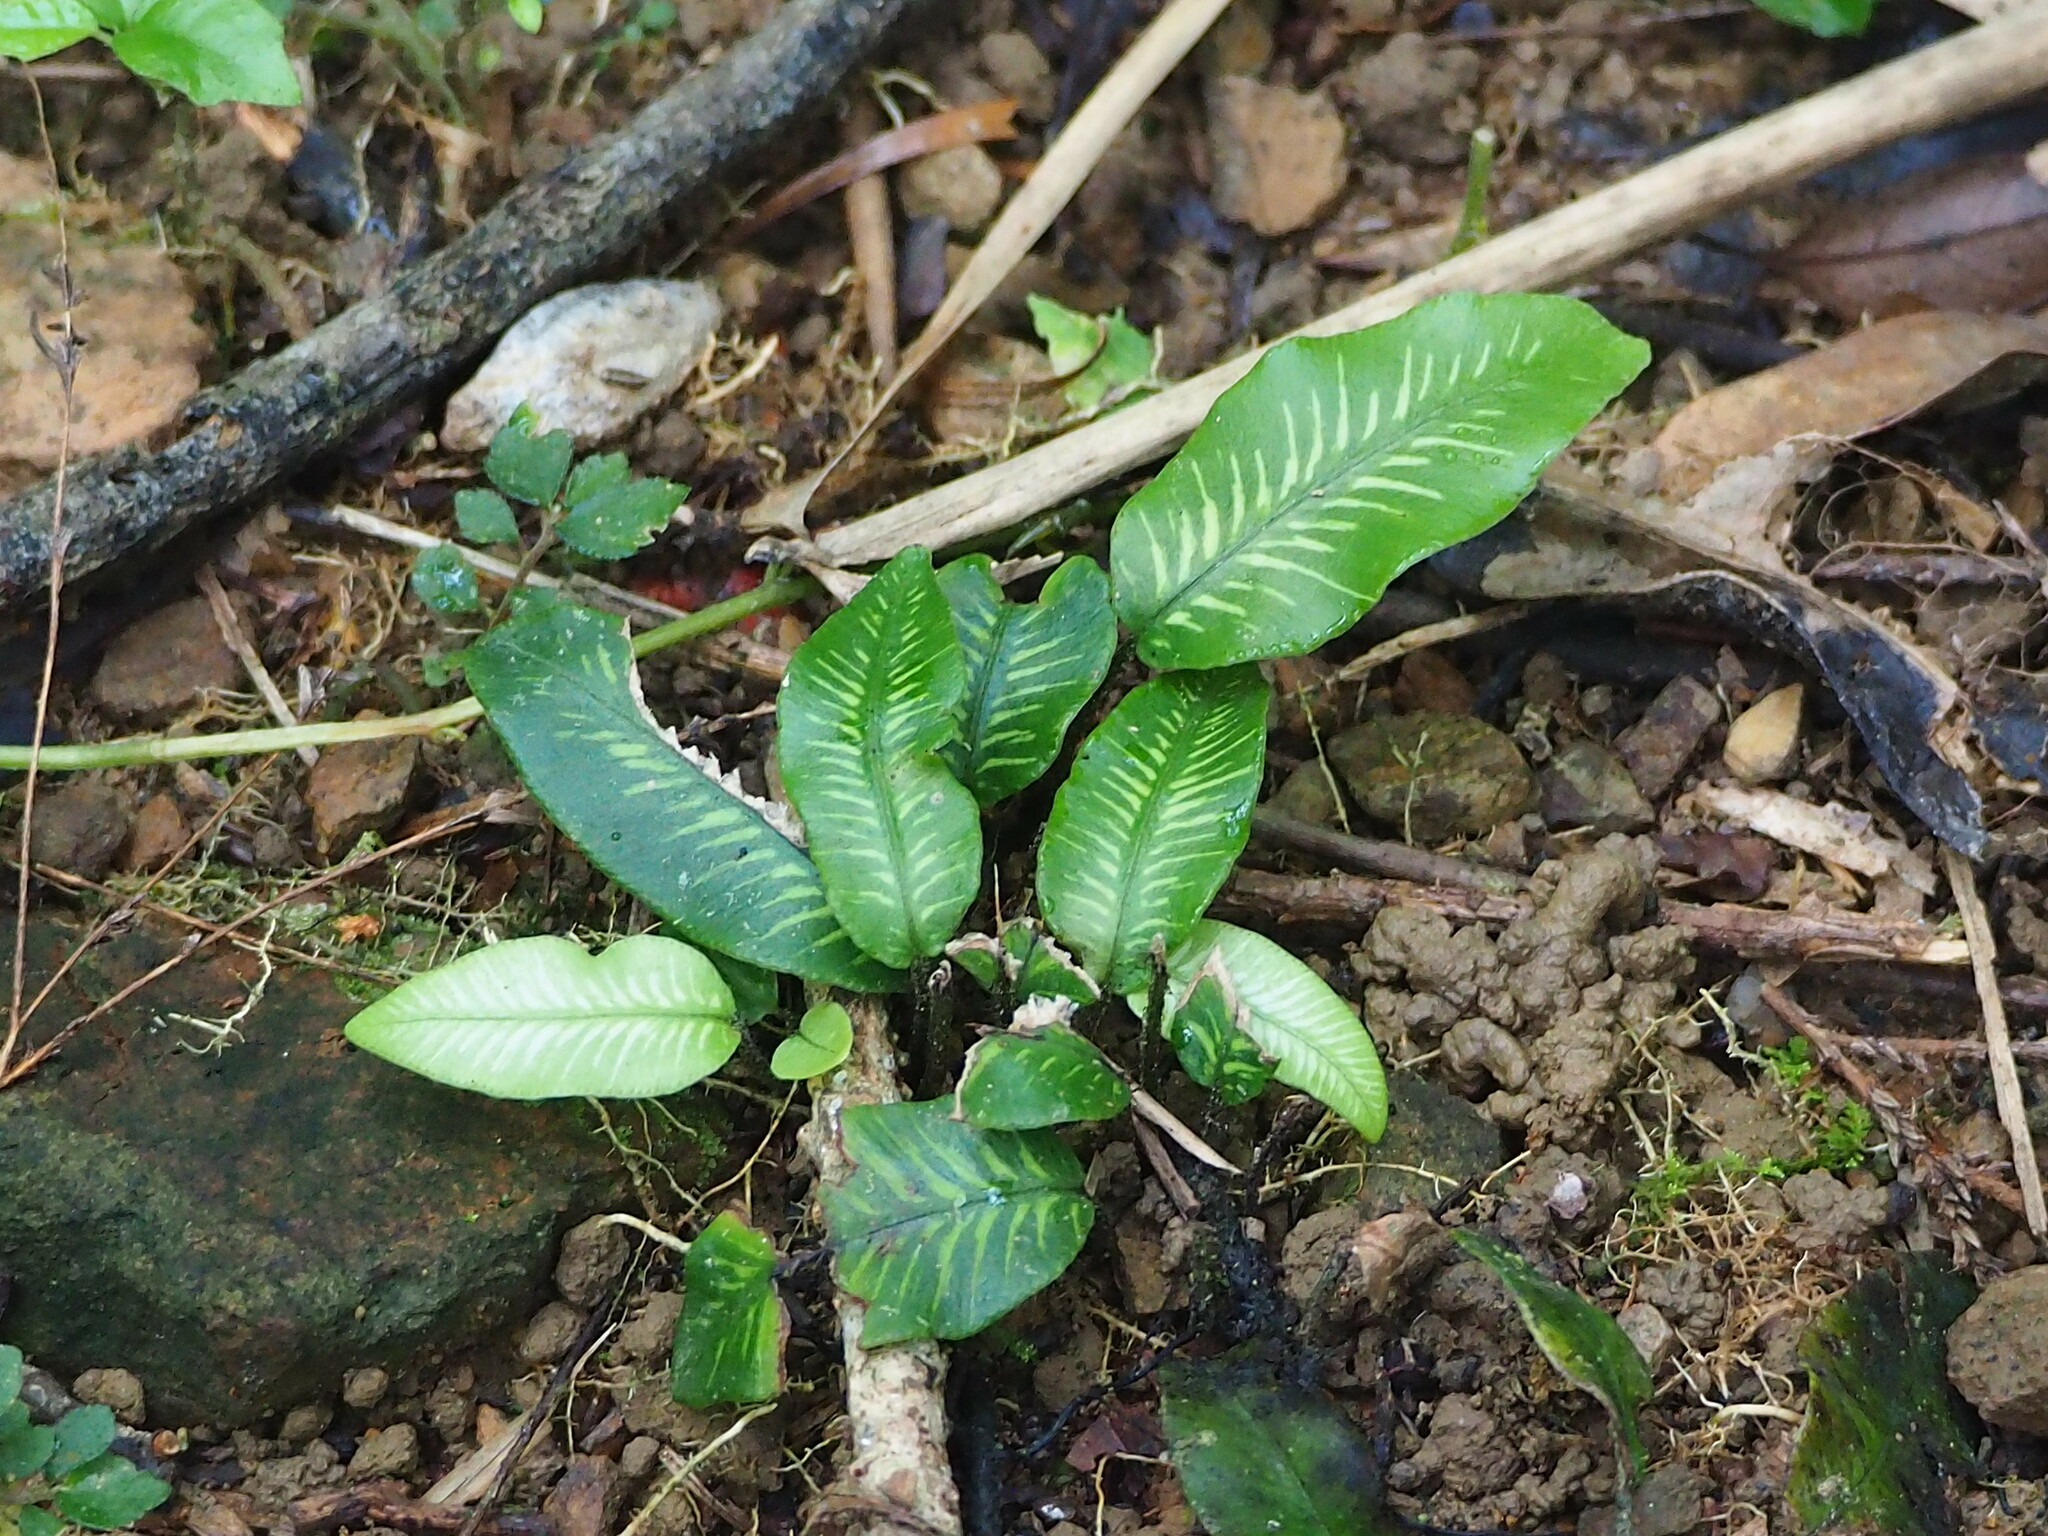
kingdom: Plantae
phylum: Tracheophyta
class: Polypodiopsida
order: Polypodiales
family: Athyriaceae
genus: Deparia
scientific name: Deparia lancea
